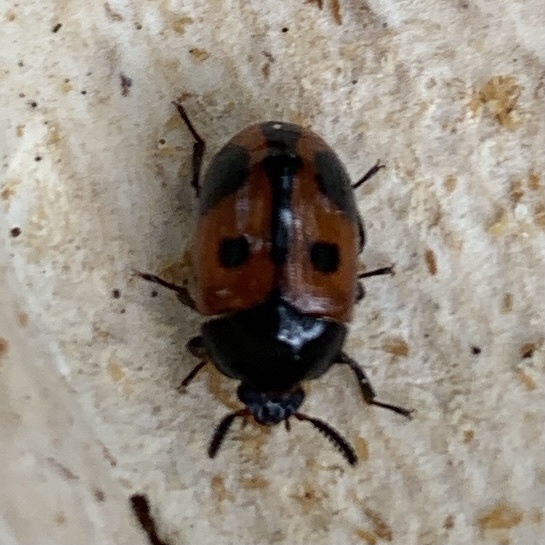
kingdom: Animalia
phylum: Arthropoda
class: Insecta
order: Coleoptera
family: Tenebrionidae
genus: Diaperis
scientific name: Diaperis maculata
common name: Darkling beetle
